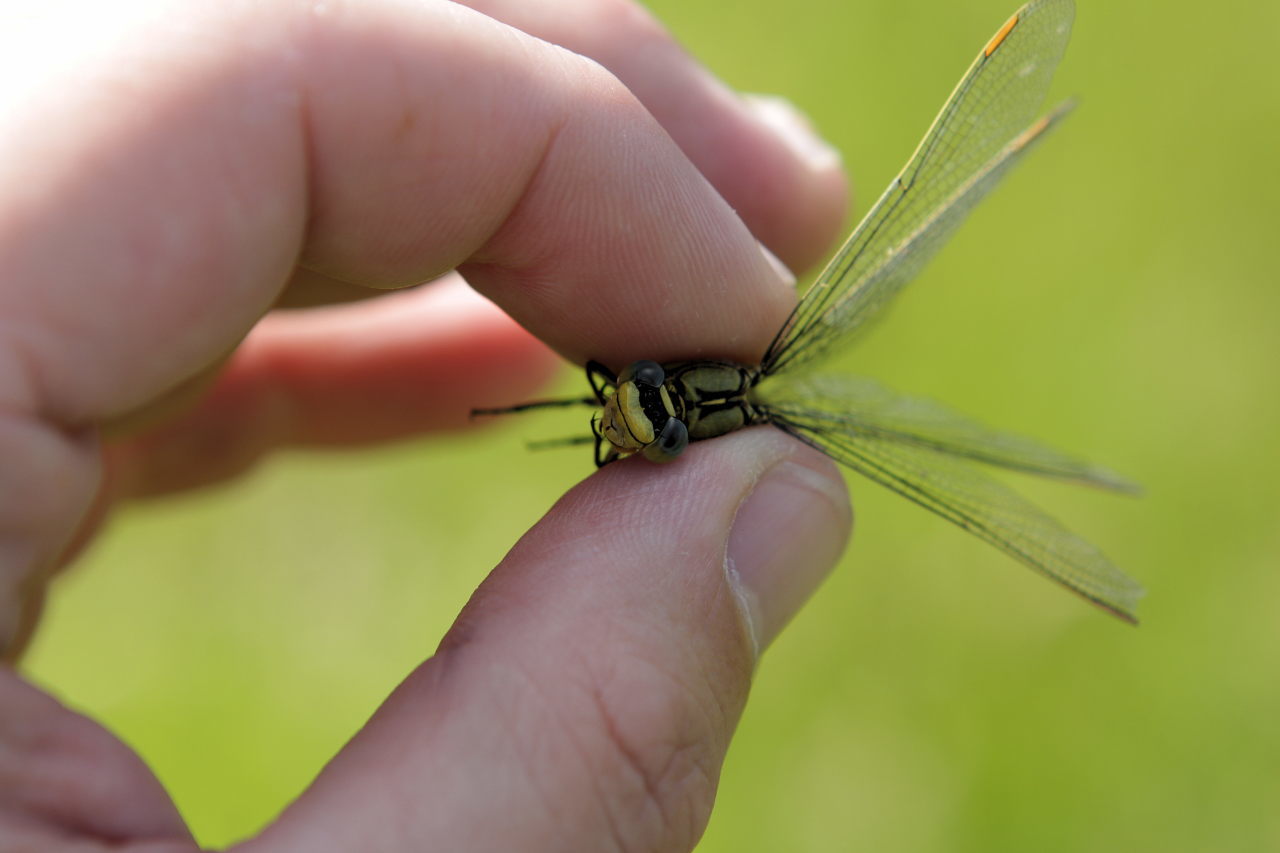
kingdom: Animalia
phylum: Arthropoda
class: Insecta
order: Odonata
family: Gomphidae
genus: Gomphus
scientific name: Gomphus pulchellus
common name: Western clubtail
